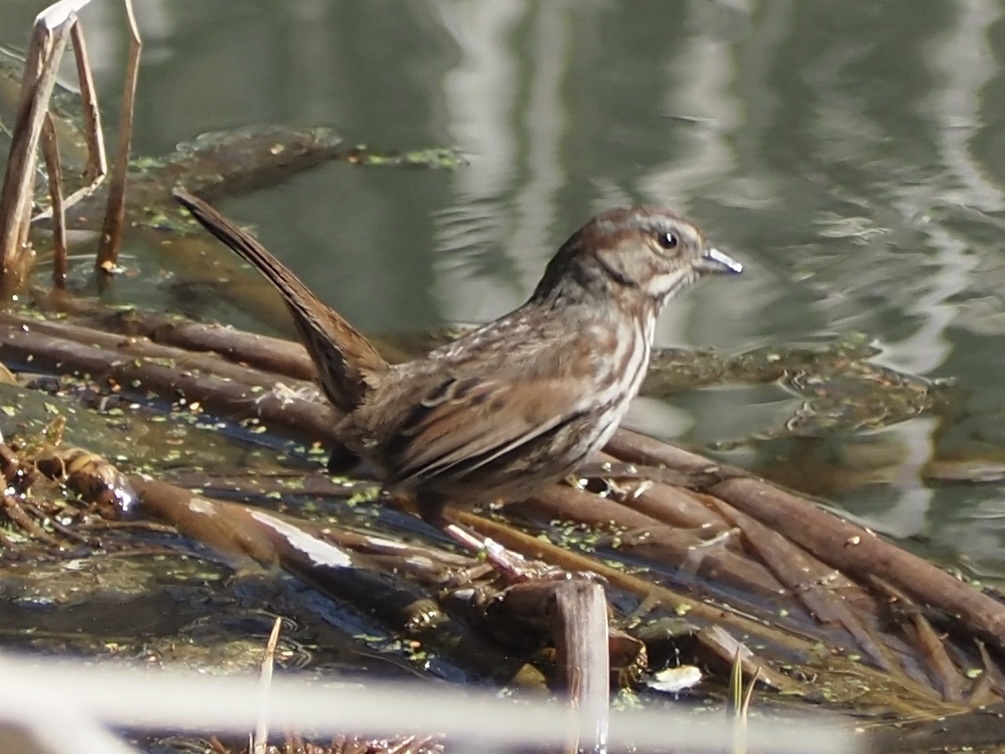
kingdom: Animalia
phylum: Chordata
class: Aves
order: Passeriformes
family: Passerellidae
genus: Melospiza
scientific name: Melospiza melodia
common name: Song sparrow
